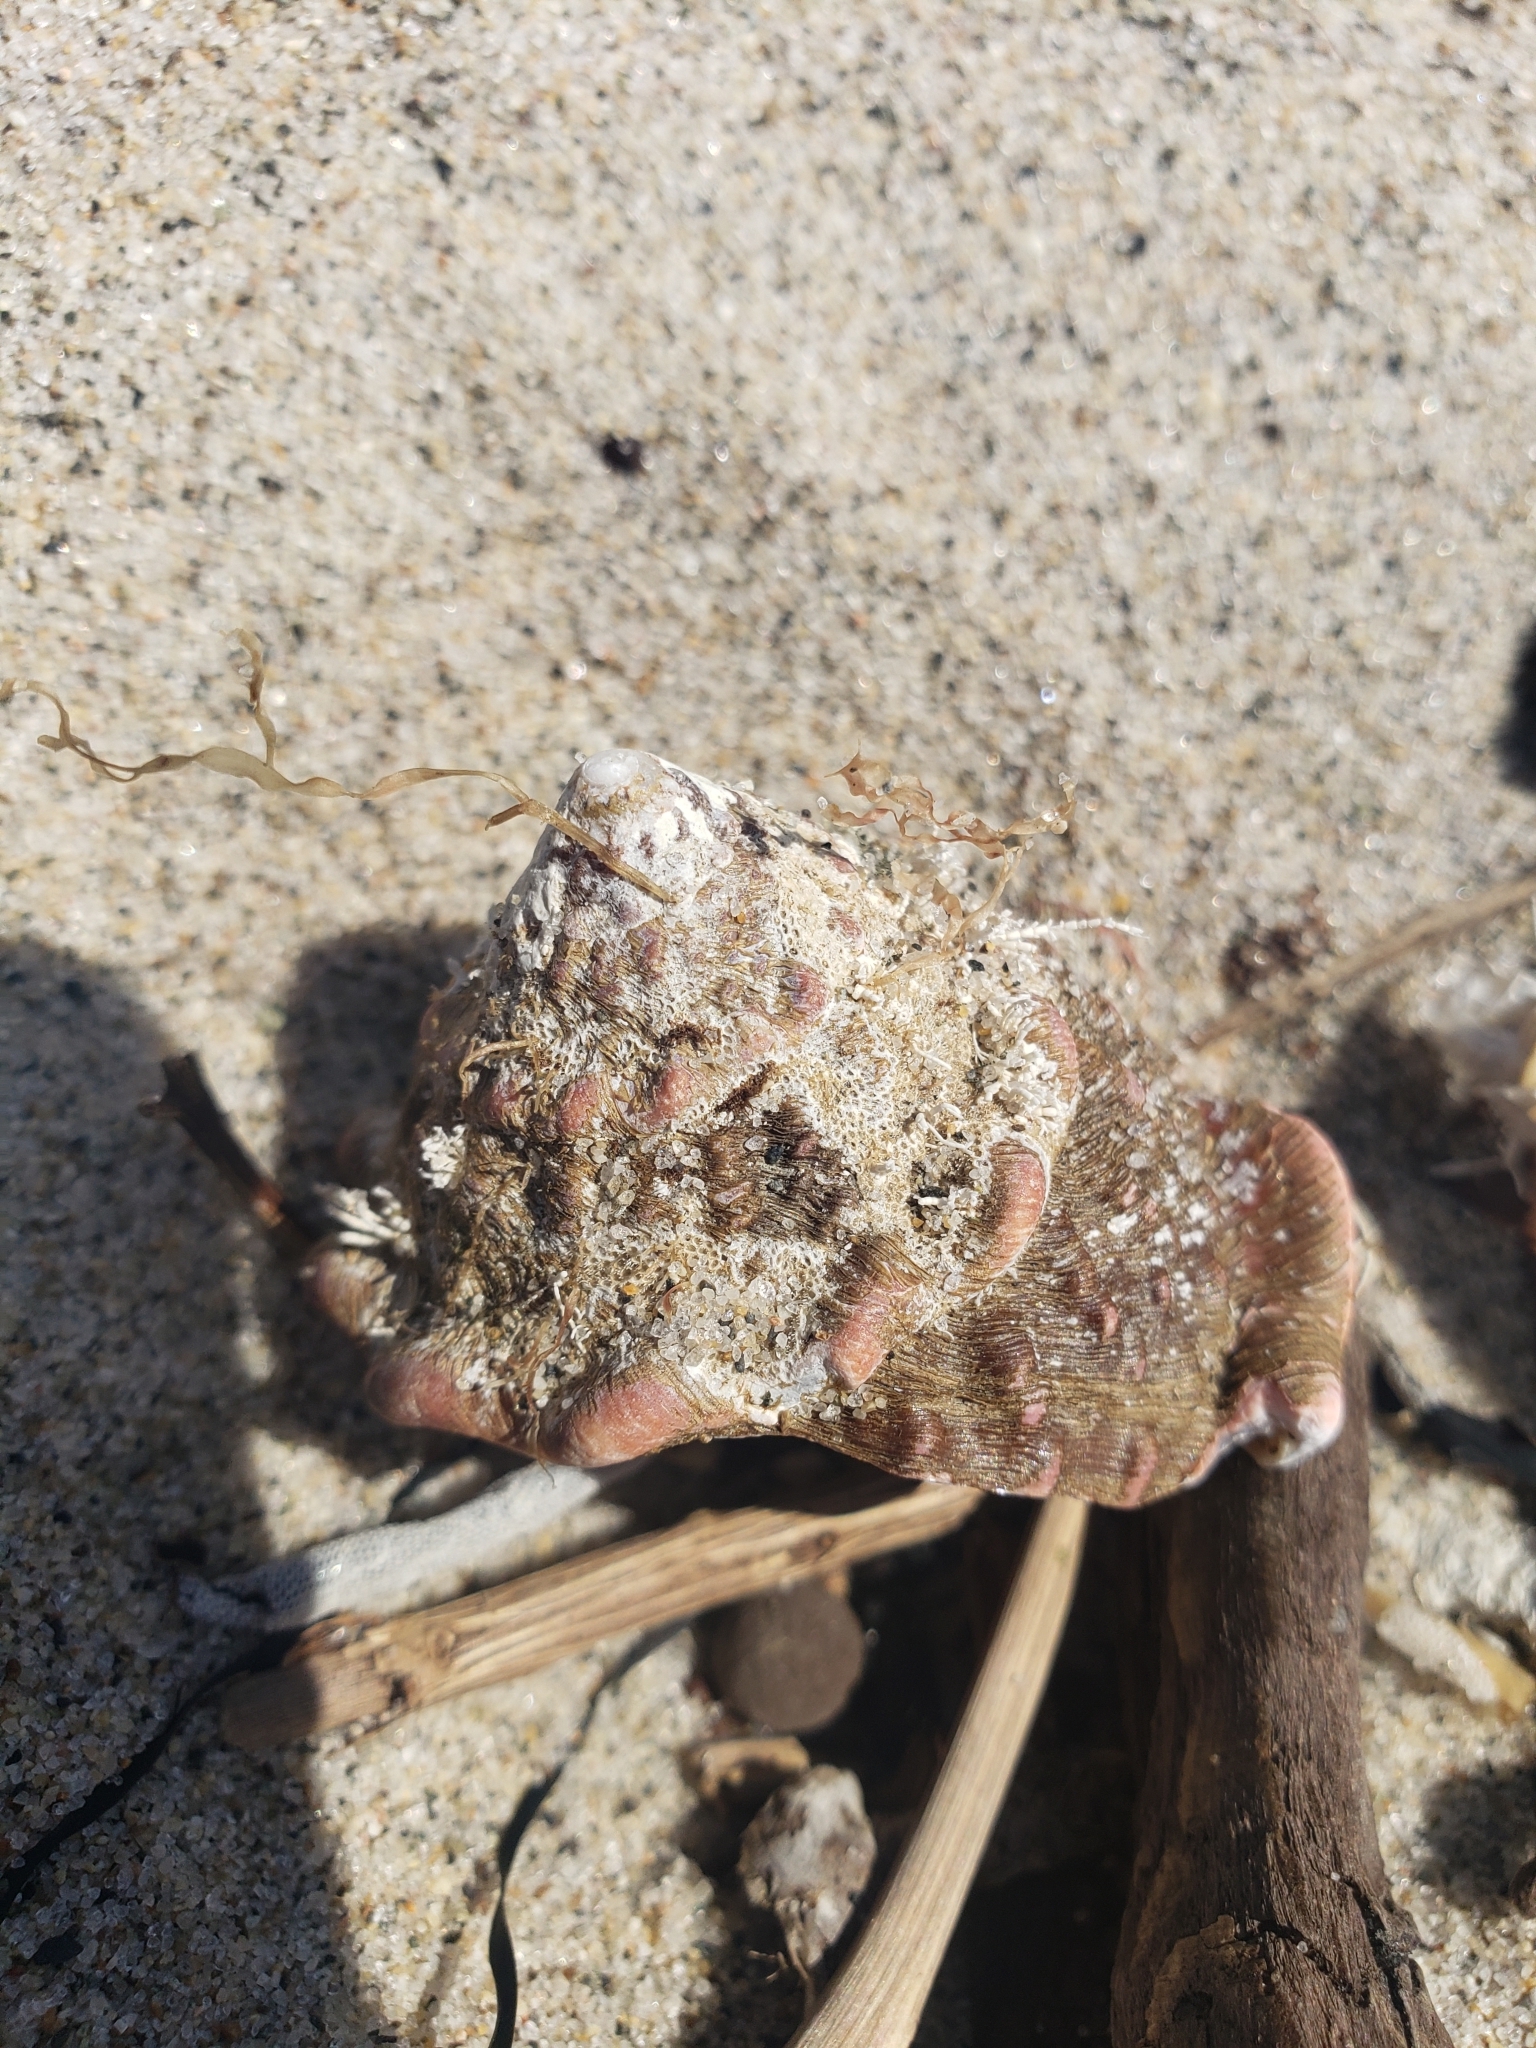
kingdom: Animalia
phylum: Mollusca
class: Gastropoda
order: Trochida
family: Turbinidae
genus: Megastraea
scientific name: Megastraea undosa
